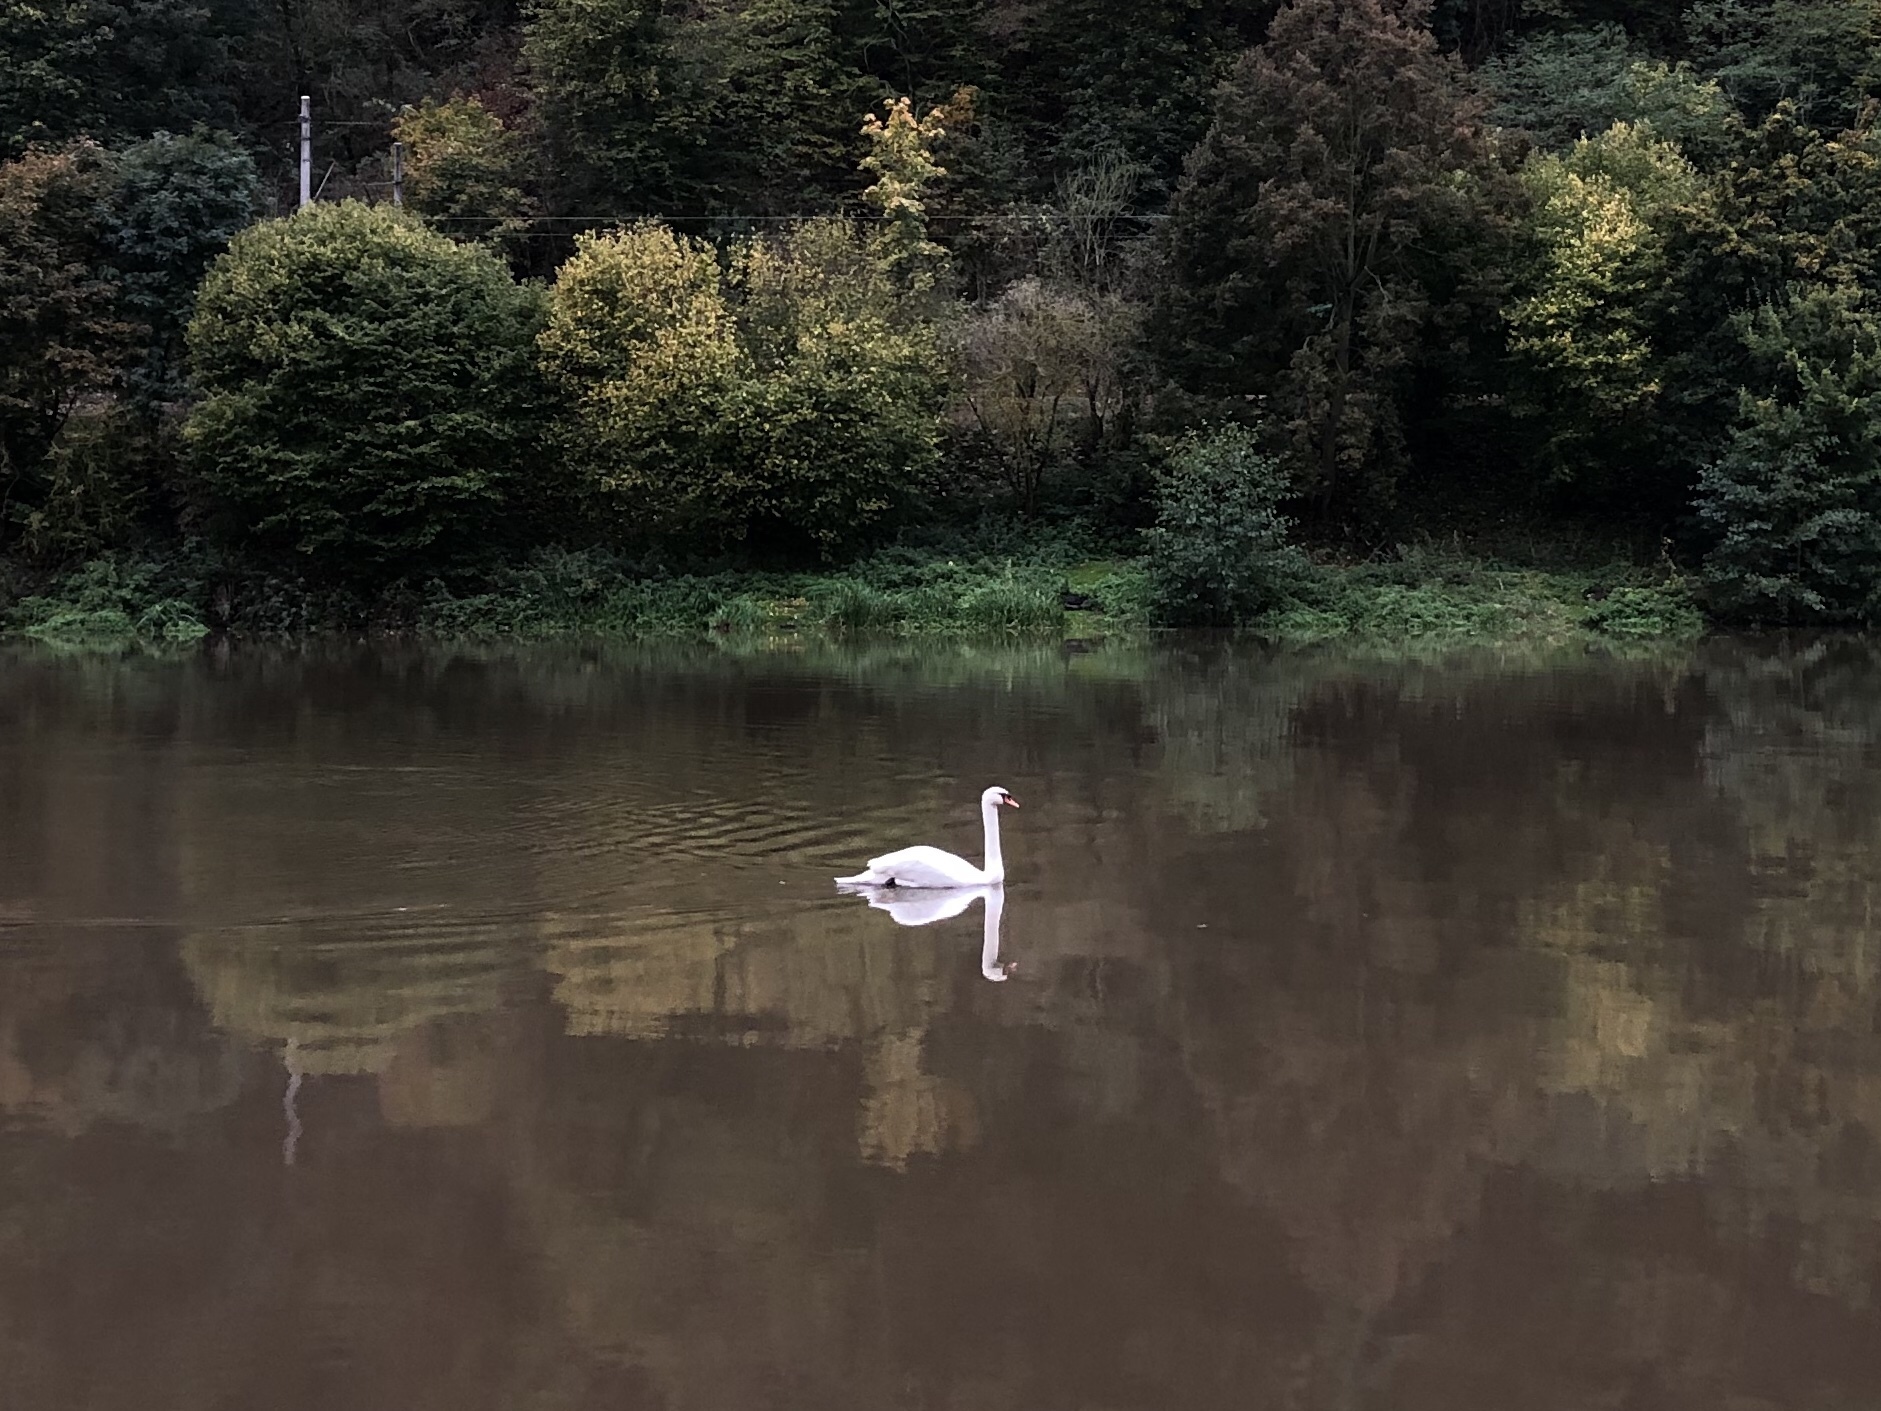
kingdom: Animalia
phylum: Chordata
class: Aves
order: Anseriformes
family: Anatidae
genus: Cygnus
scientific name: Cygnus olor
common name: Mute swan
